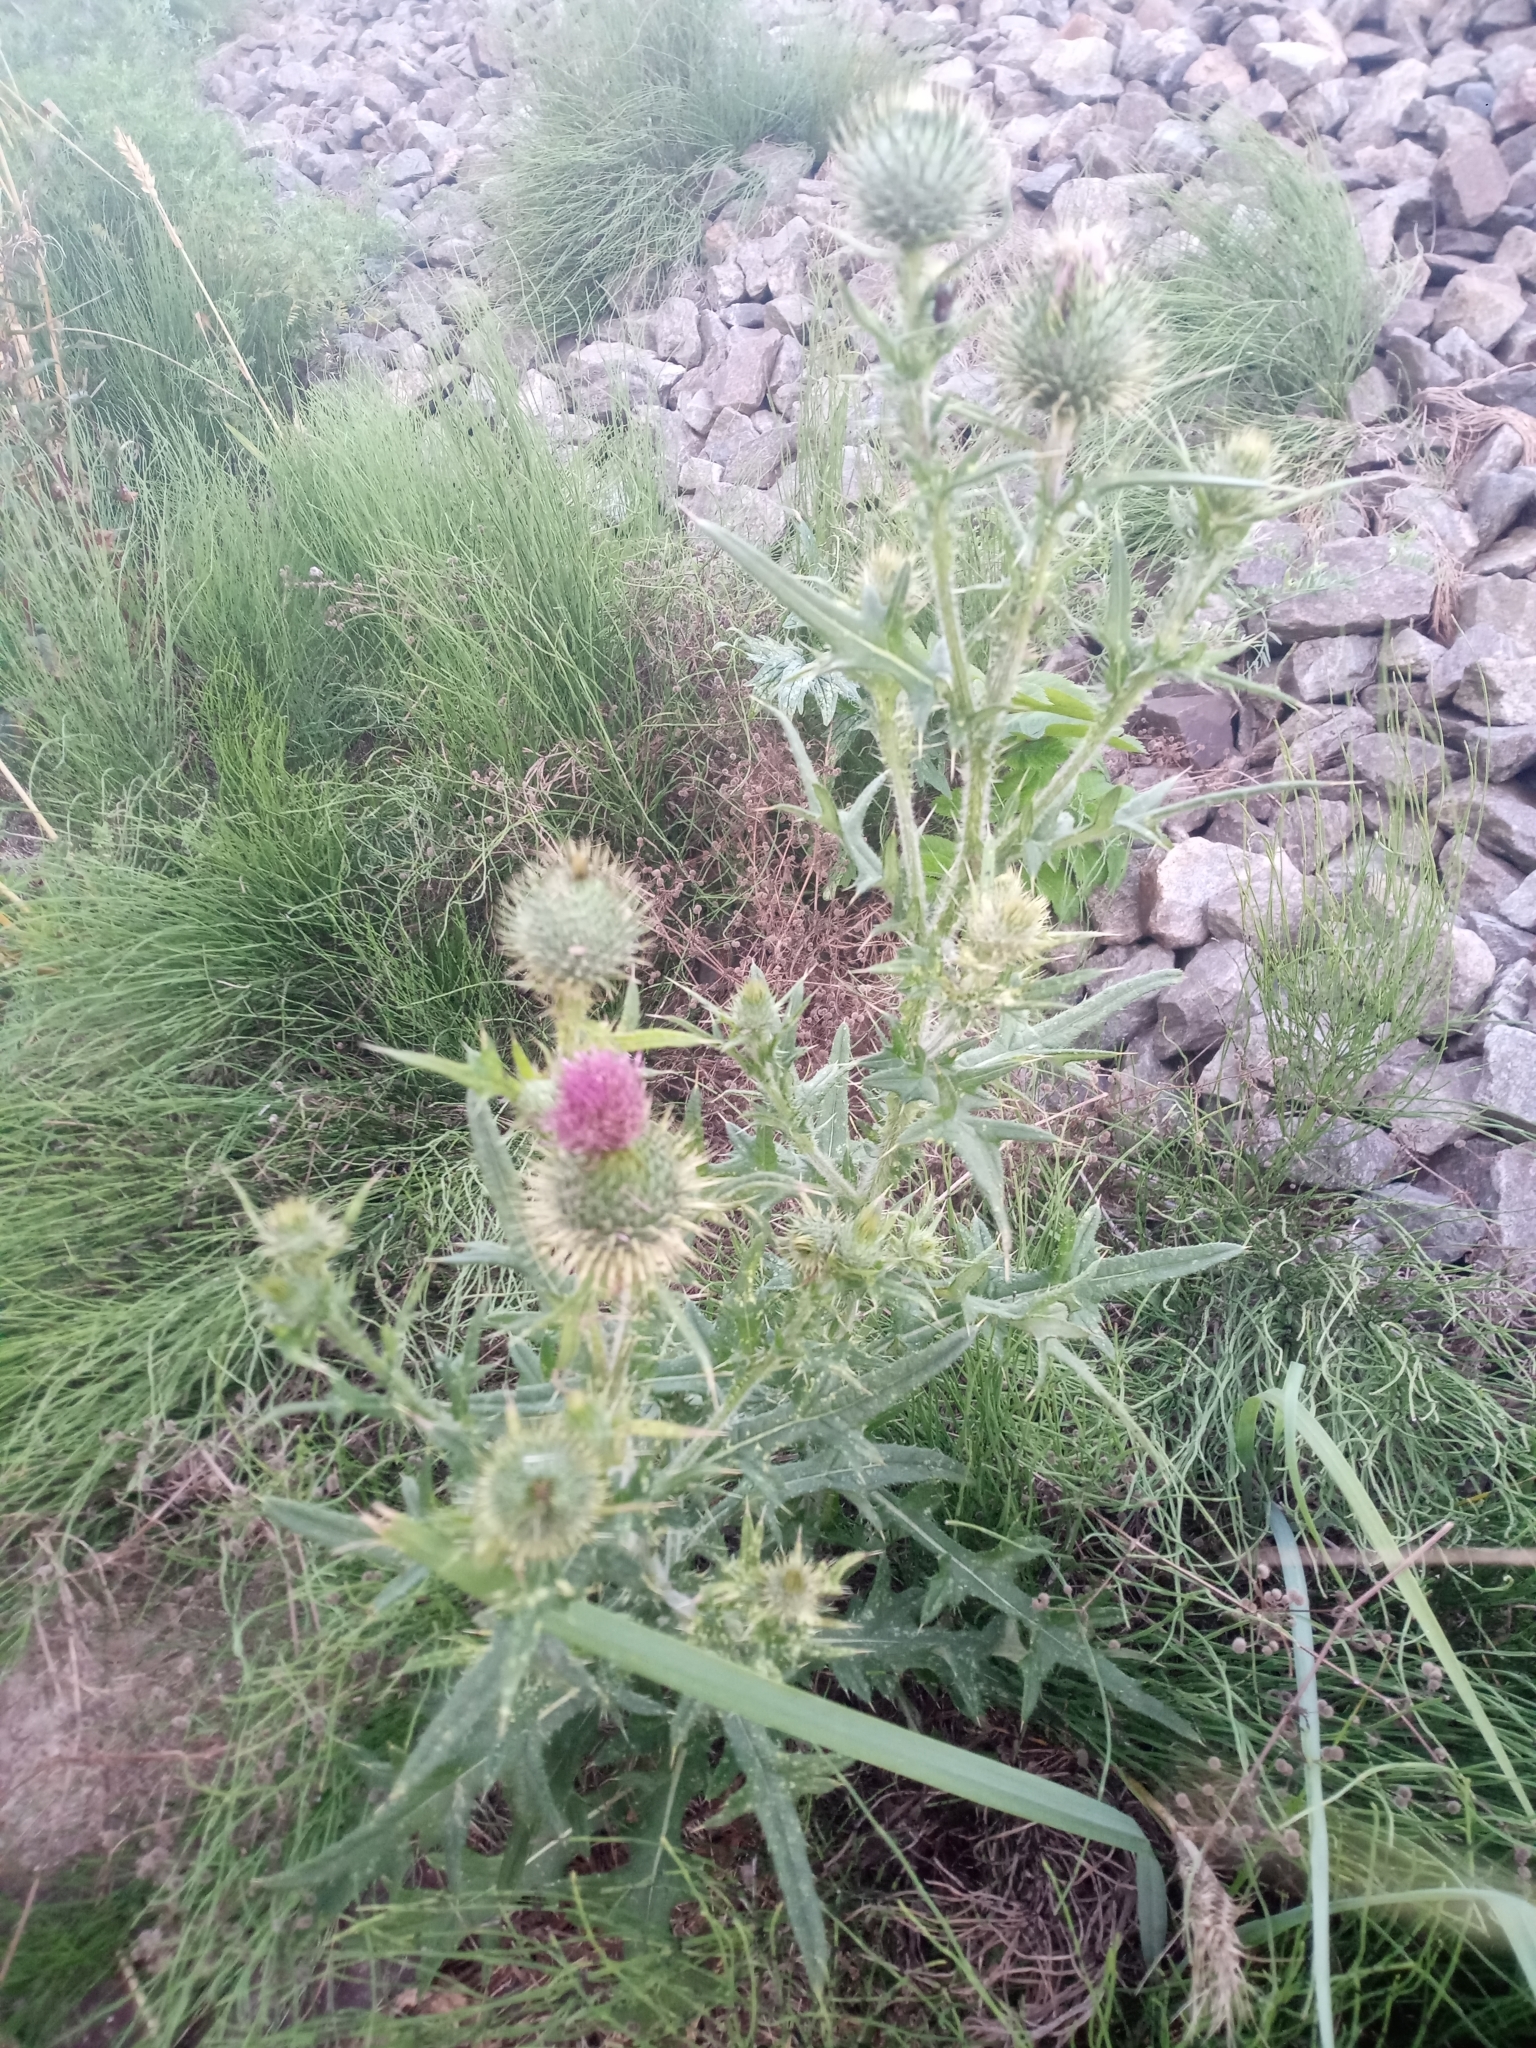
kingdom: Plantae
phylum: Tracheophyta
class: Magnoliopsida
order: Asterales
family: Asteraceae
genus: Cirsium
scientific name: Cirsium vulgare
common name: Bull thistle
